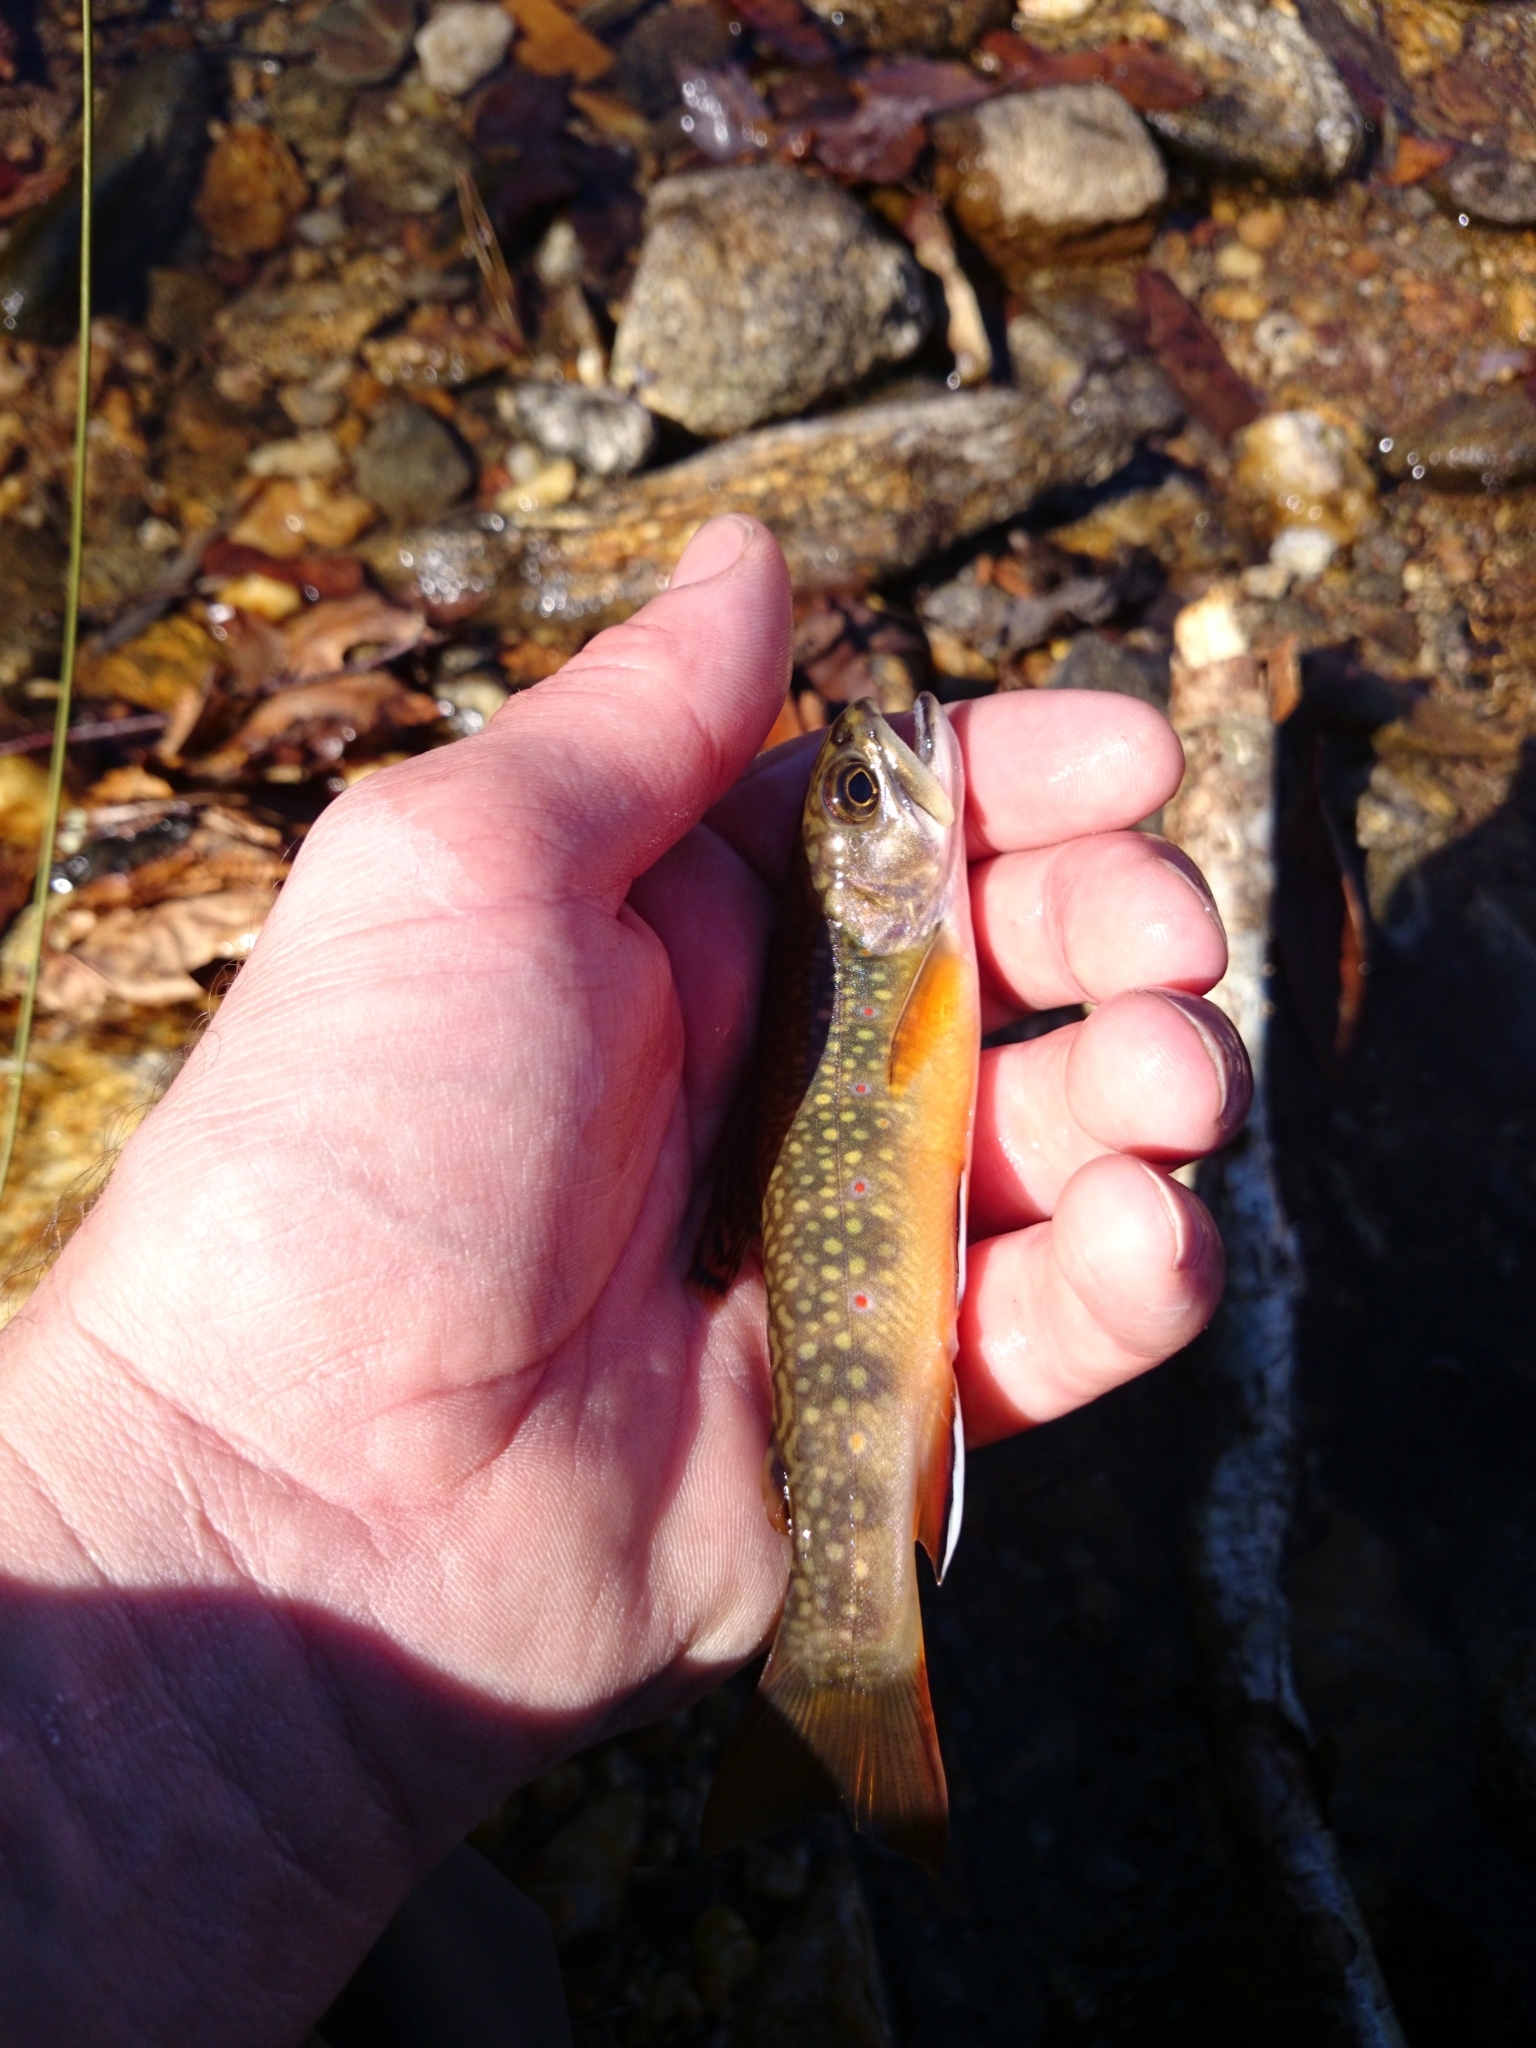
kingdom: Animalia
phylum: Chordata
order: Salmoniformes
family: Salmonidae
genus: Salvelinus
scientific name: Salvelinus fontinalis
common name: Brook trout
